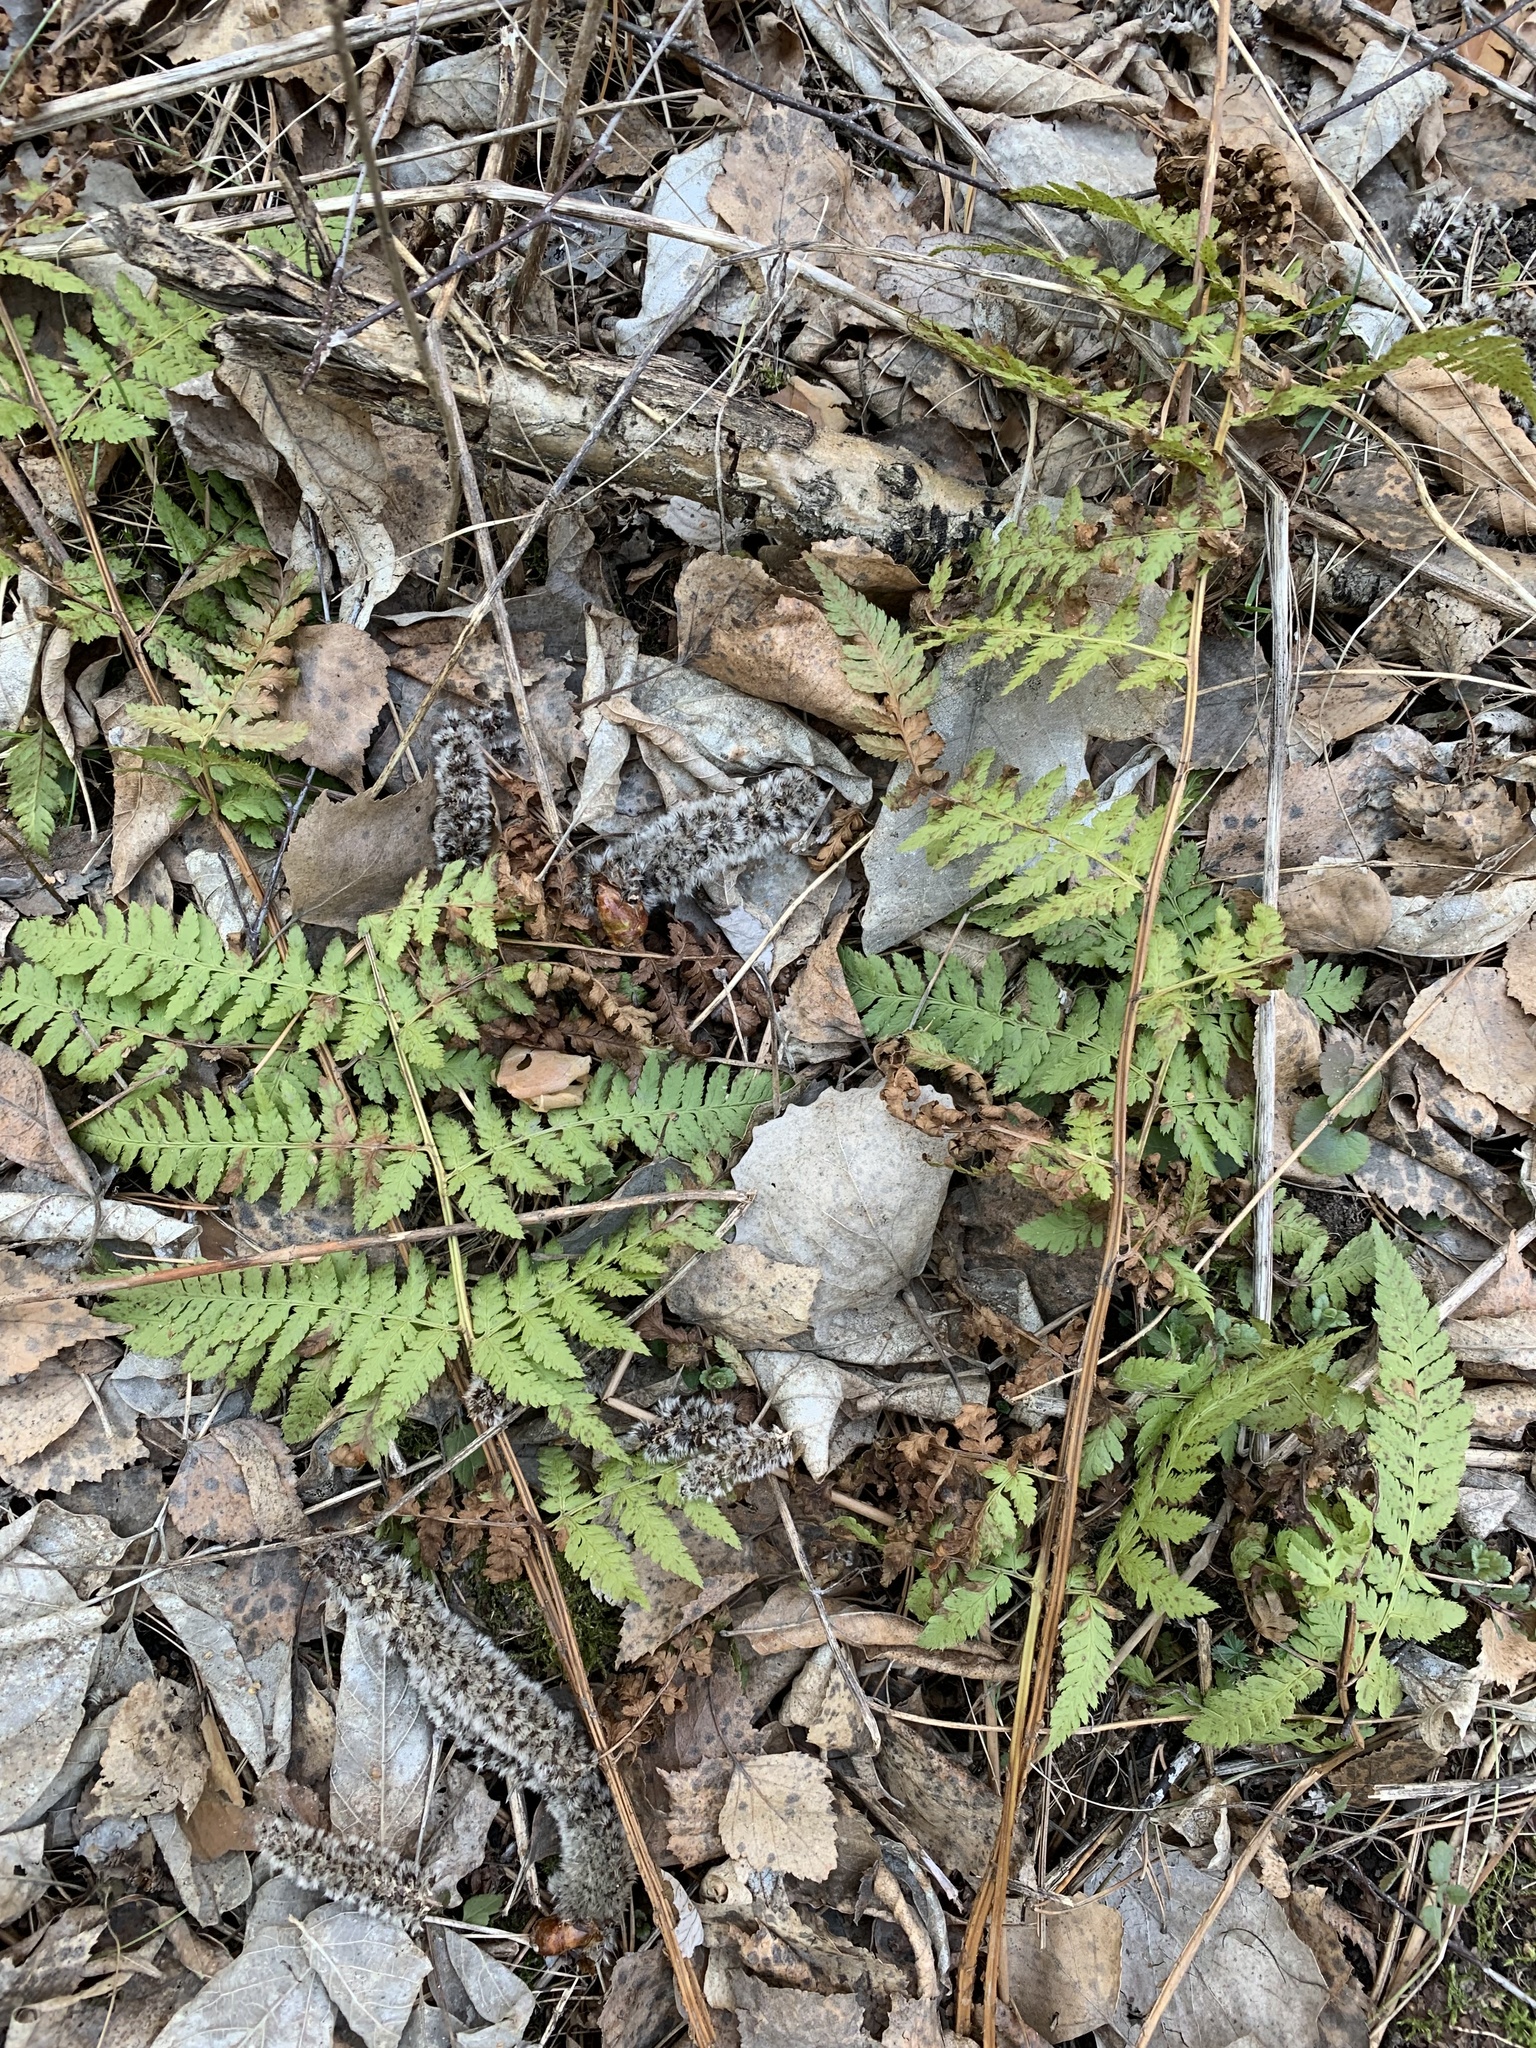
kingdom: Plantae
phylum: Tracheophyta
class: Polypodiopsida
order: Polypodiales
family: Dryopteridaceae
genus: Dryopteris
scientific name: Dryopteris carthusiana
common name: Narrow buckler-fern
